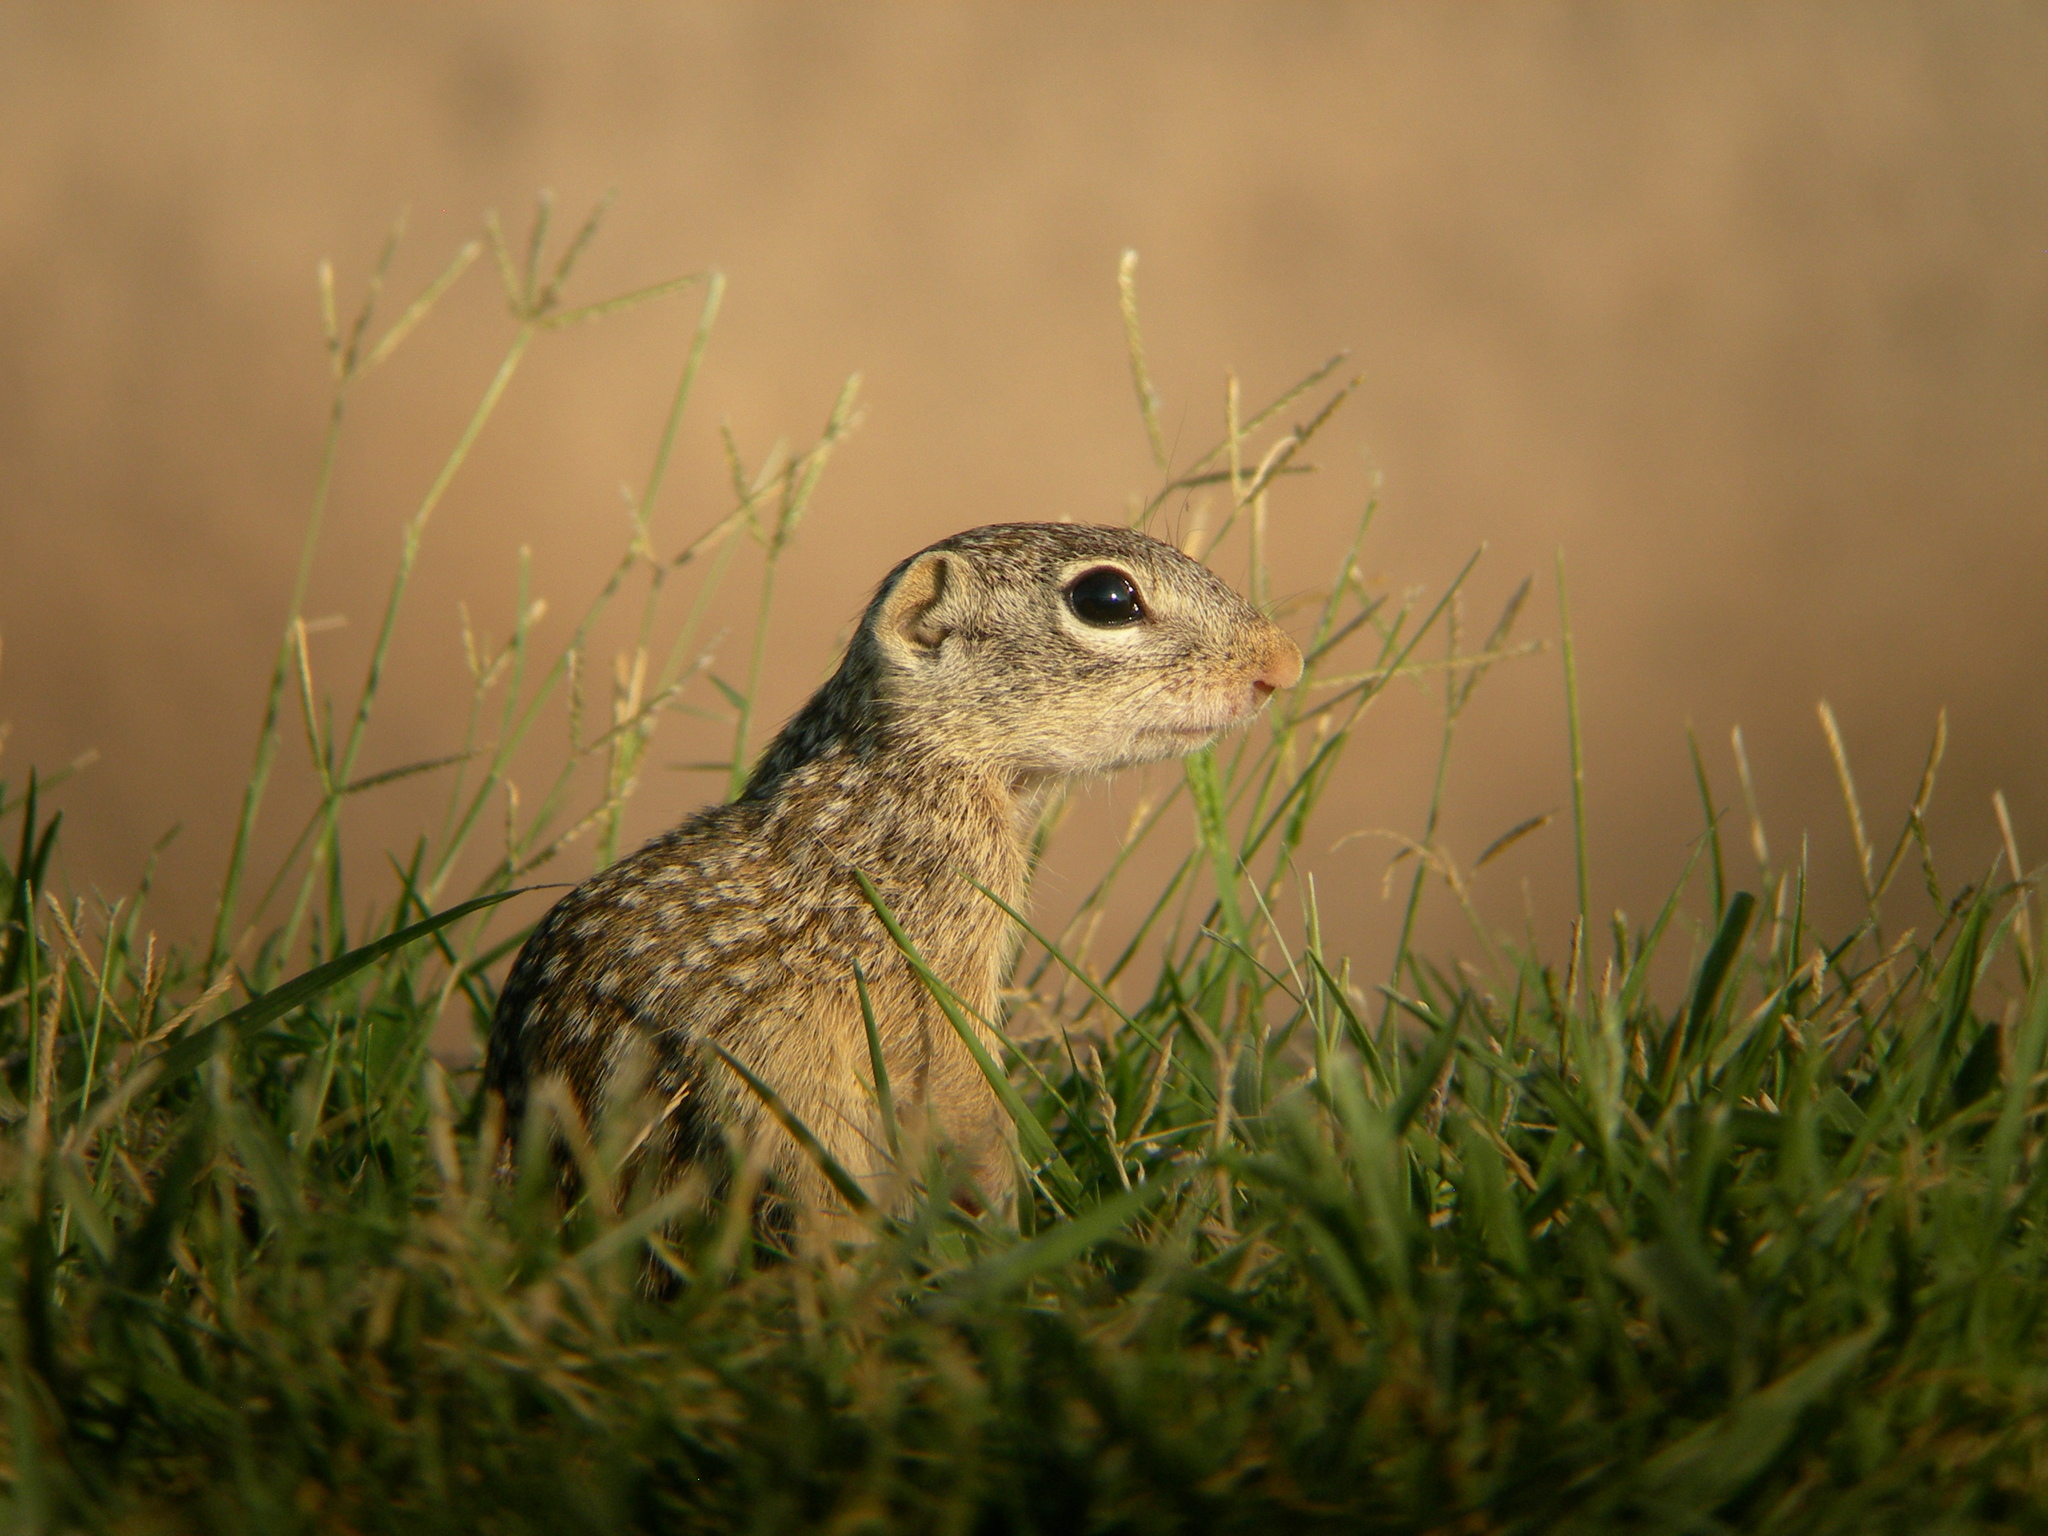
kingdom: Animalia
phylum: Chordata
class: Mammalia
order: Rodentia
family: Sciuridae
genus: Ictidomys
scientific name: Ictidomys parvidens
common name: Rio grande ground squirrel
